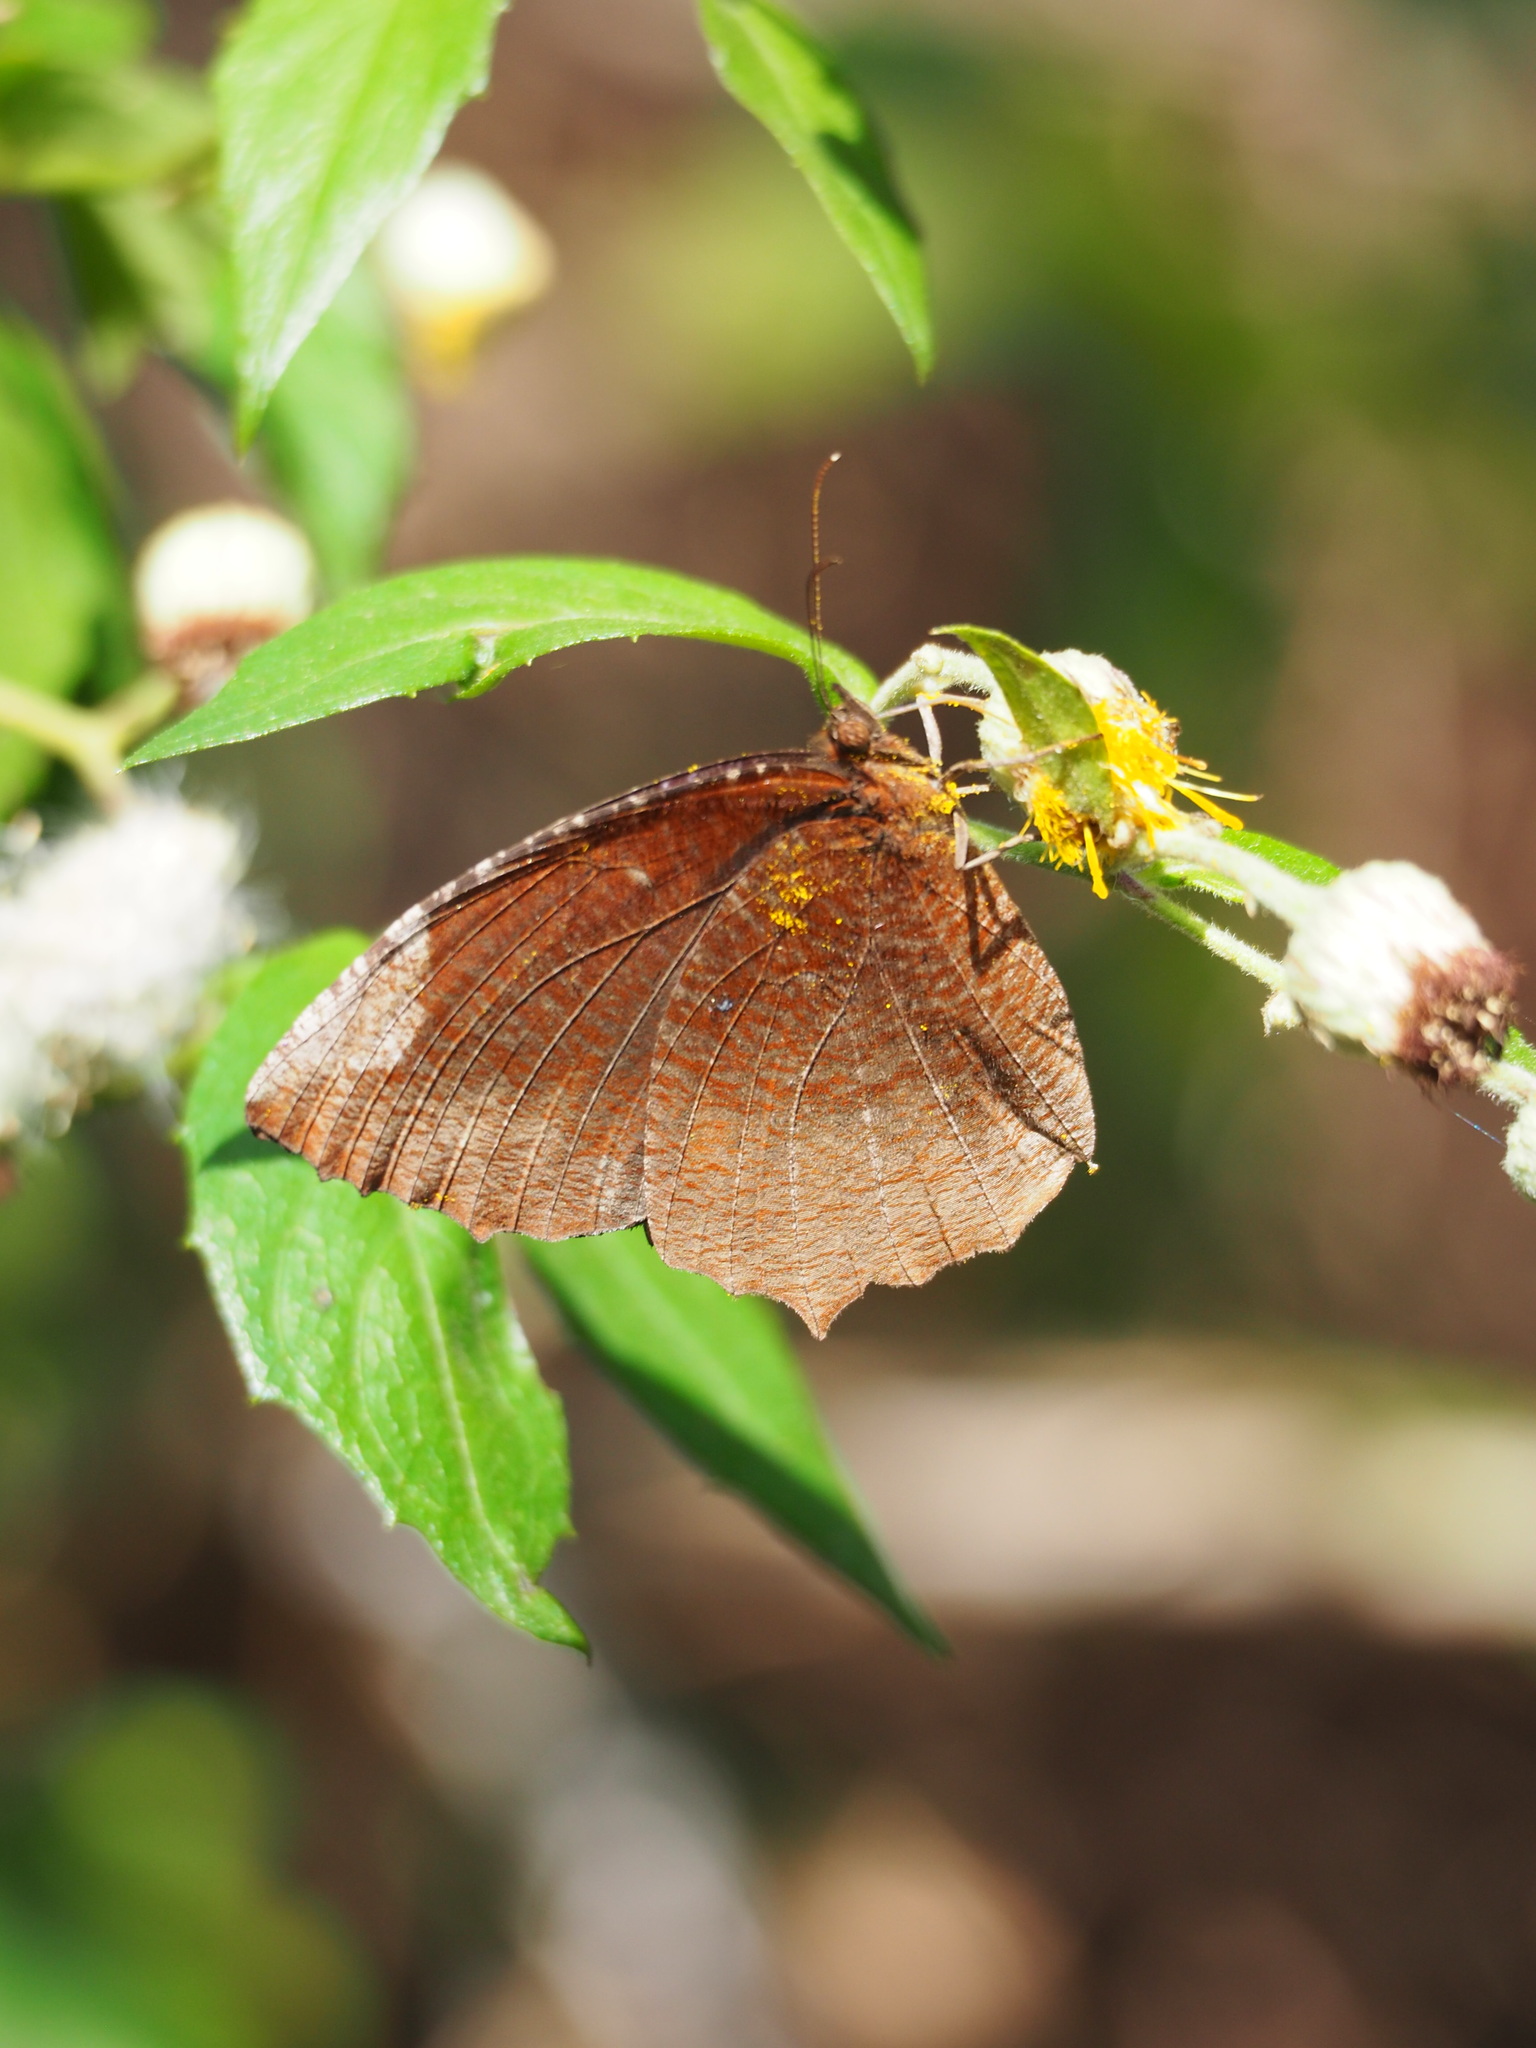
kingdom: Animalia
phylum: Arthropoda
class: Insecta
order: Lepidoptera
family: Nymphalidae
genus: Elymnias
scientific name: Elymnias hypermnestra
